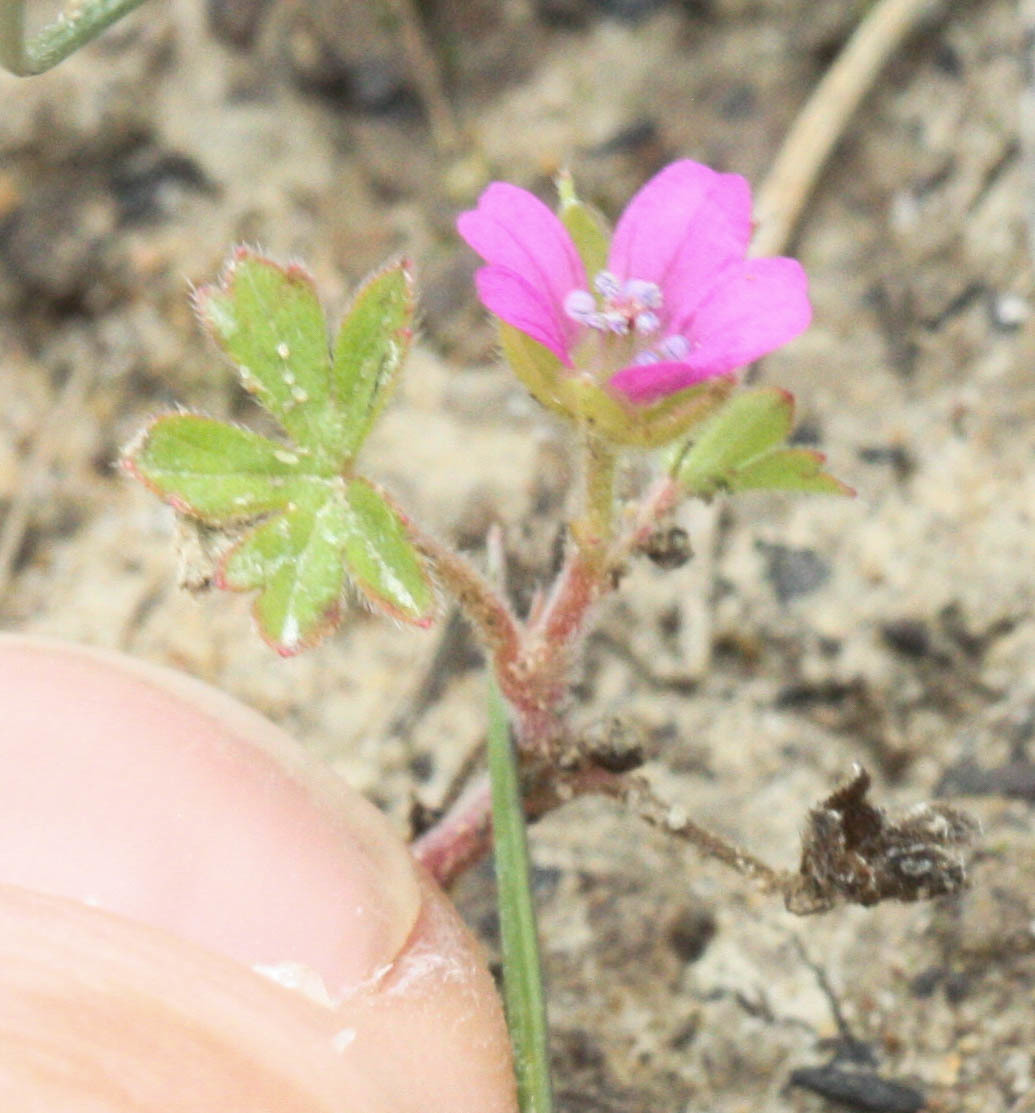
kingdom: Plantae
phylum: Tracheophyta
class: Magnoliopsida
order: Geraniales
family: Geraniaceae
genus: Geranium
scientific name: Geranium dissectum
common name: Cut-leaved crane's-bill
